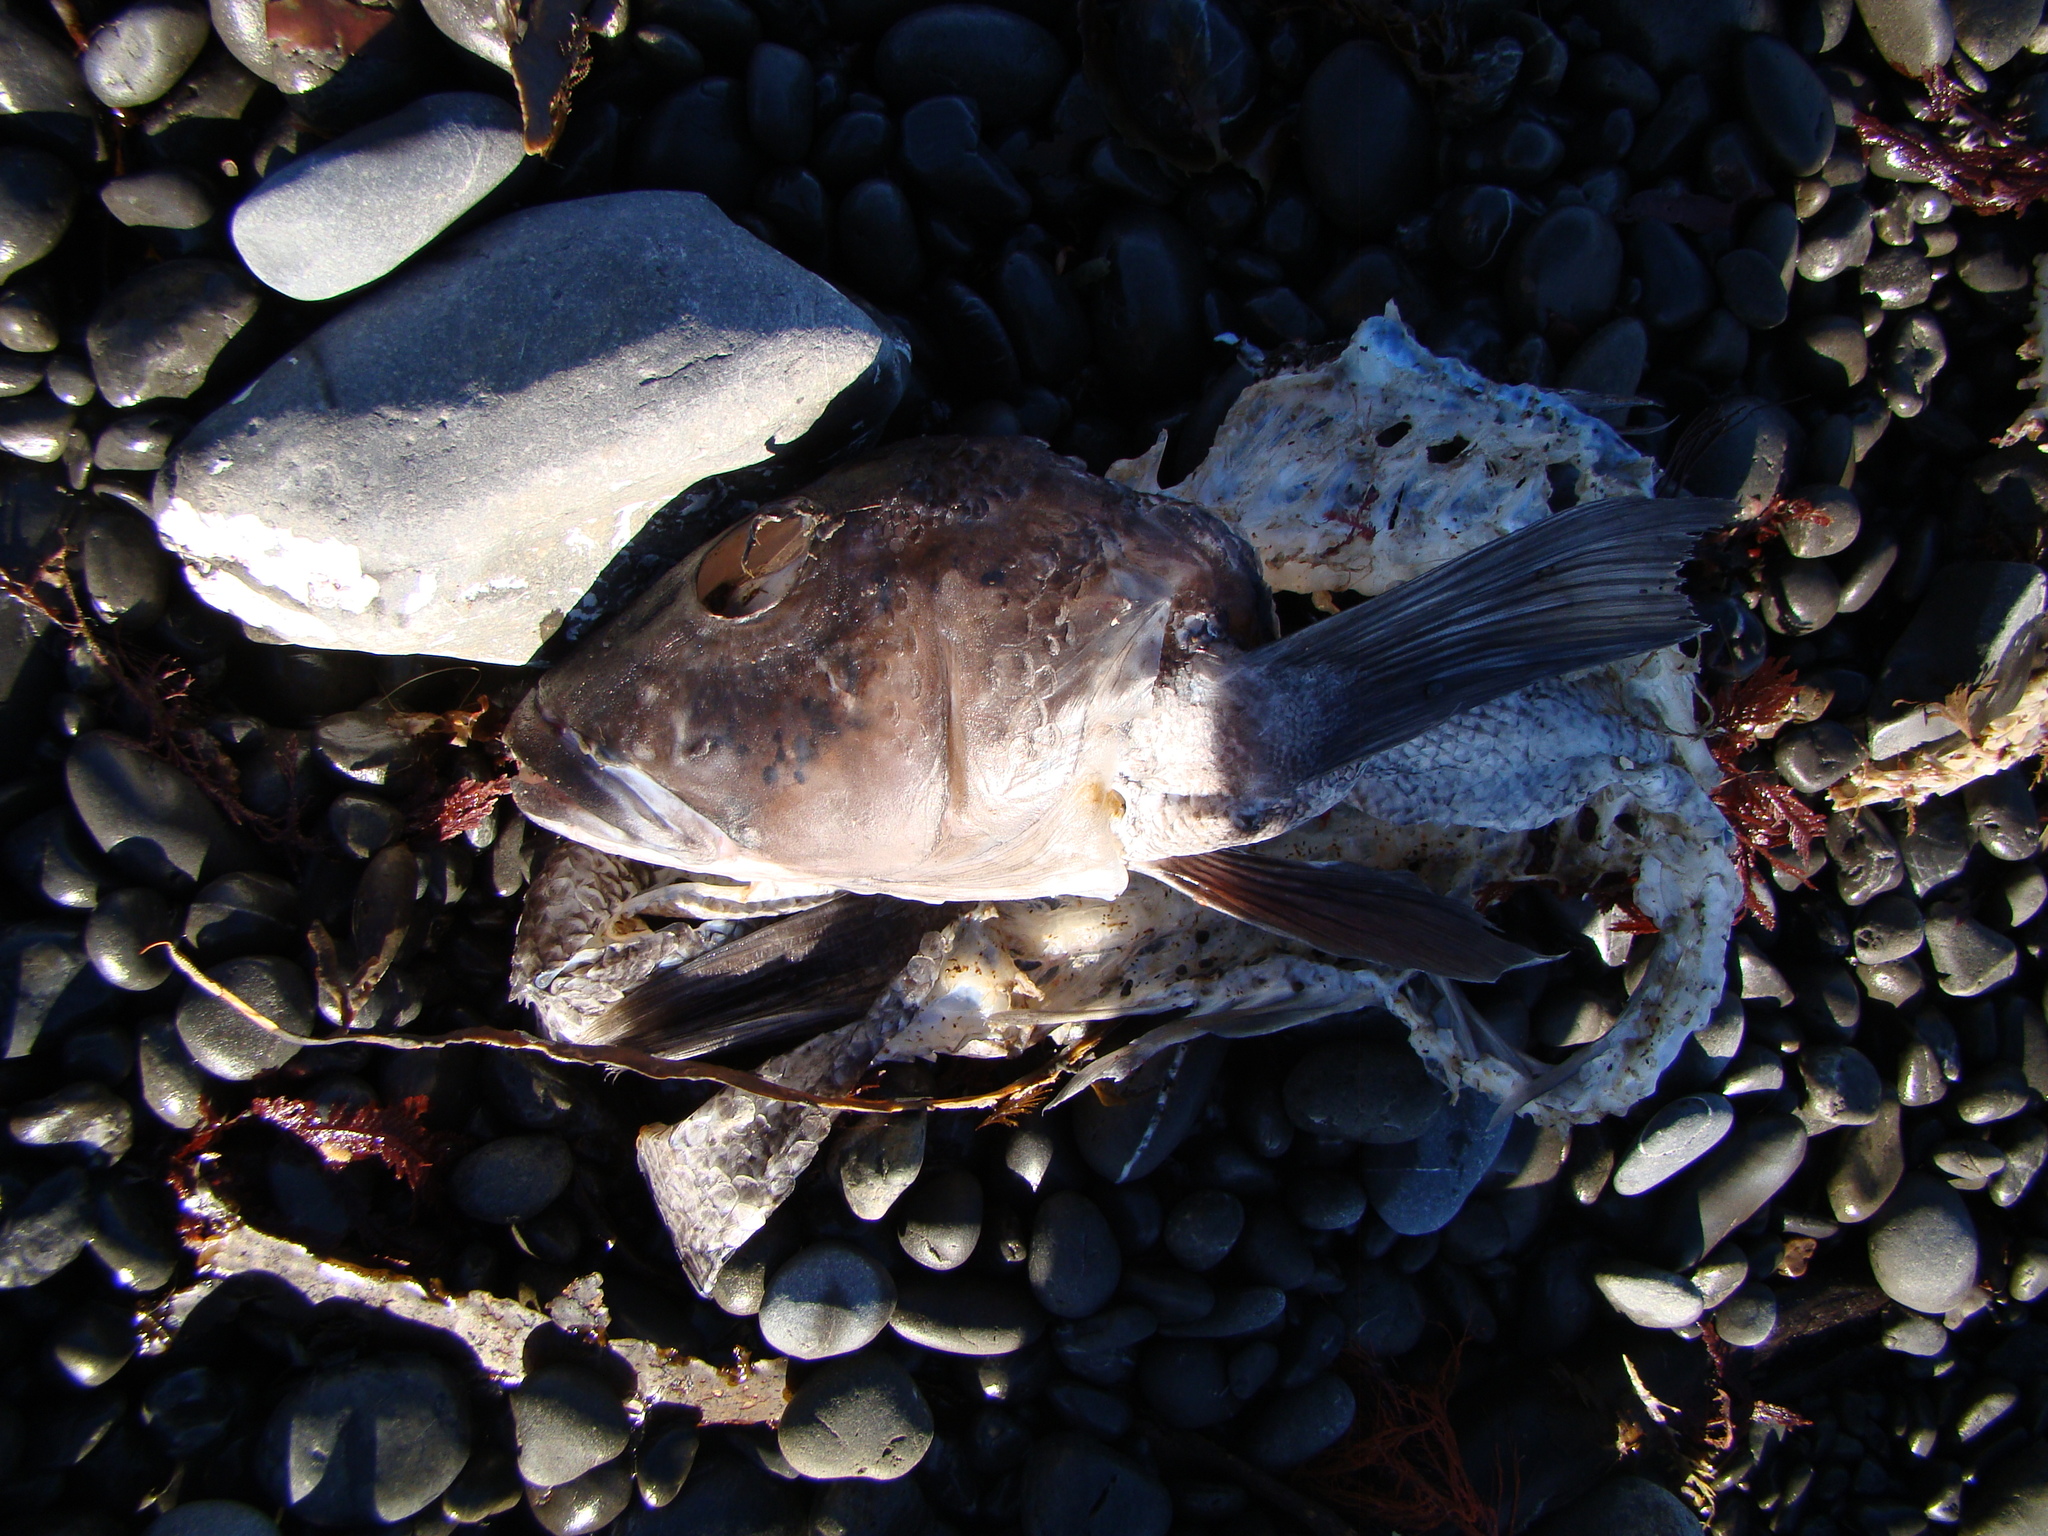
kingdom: Animalia
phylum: Chordata
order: Perciformes
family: Pinguipedidae
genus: Parapercis
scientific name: Parapercis colias
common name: Blue cod
